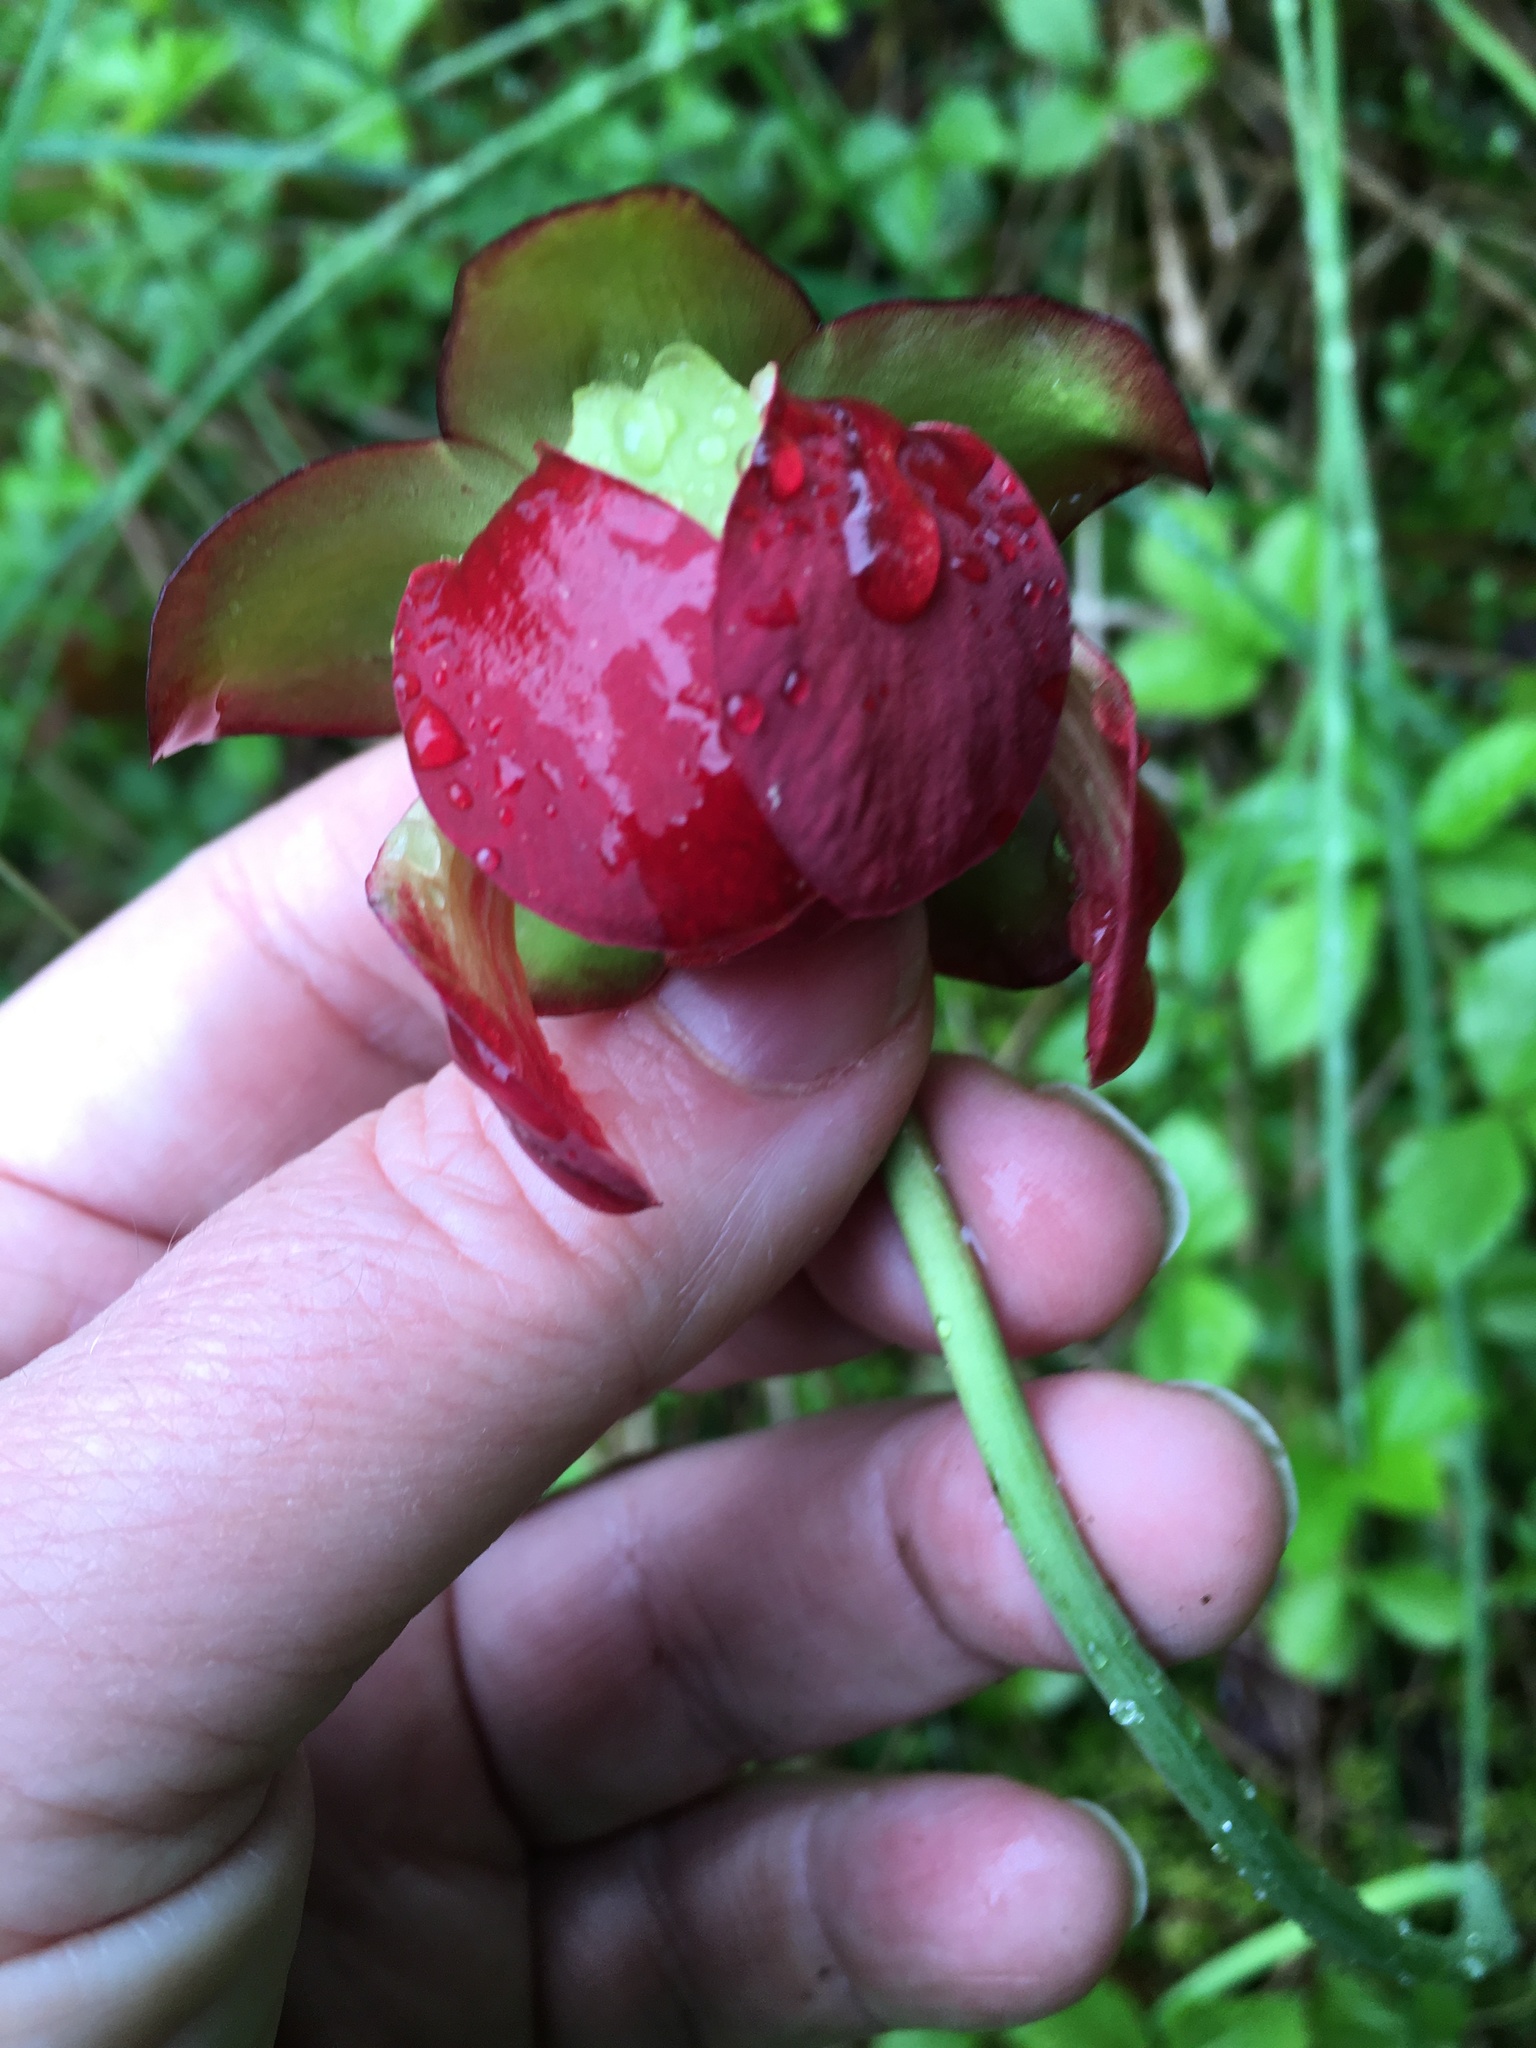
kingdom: Plantae
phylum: Tracheophyta
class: Magnoliopsida
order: Ericales
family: Sarraceniaceae
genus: Sarracenia
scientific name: Sarracenia purpurea
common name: Pitcherplant
